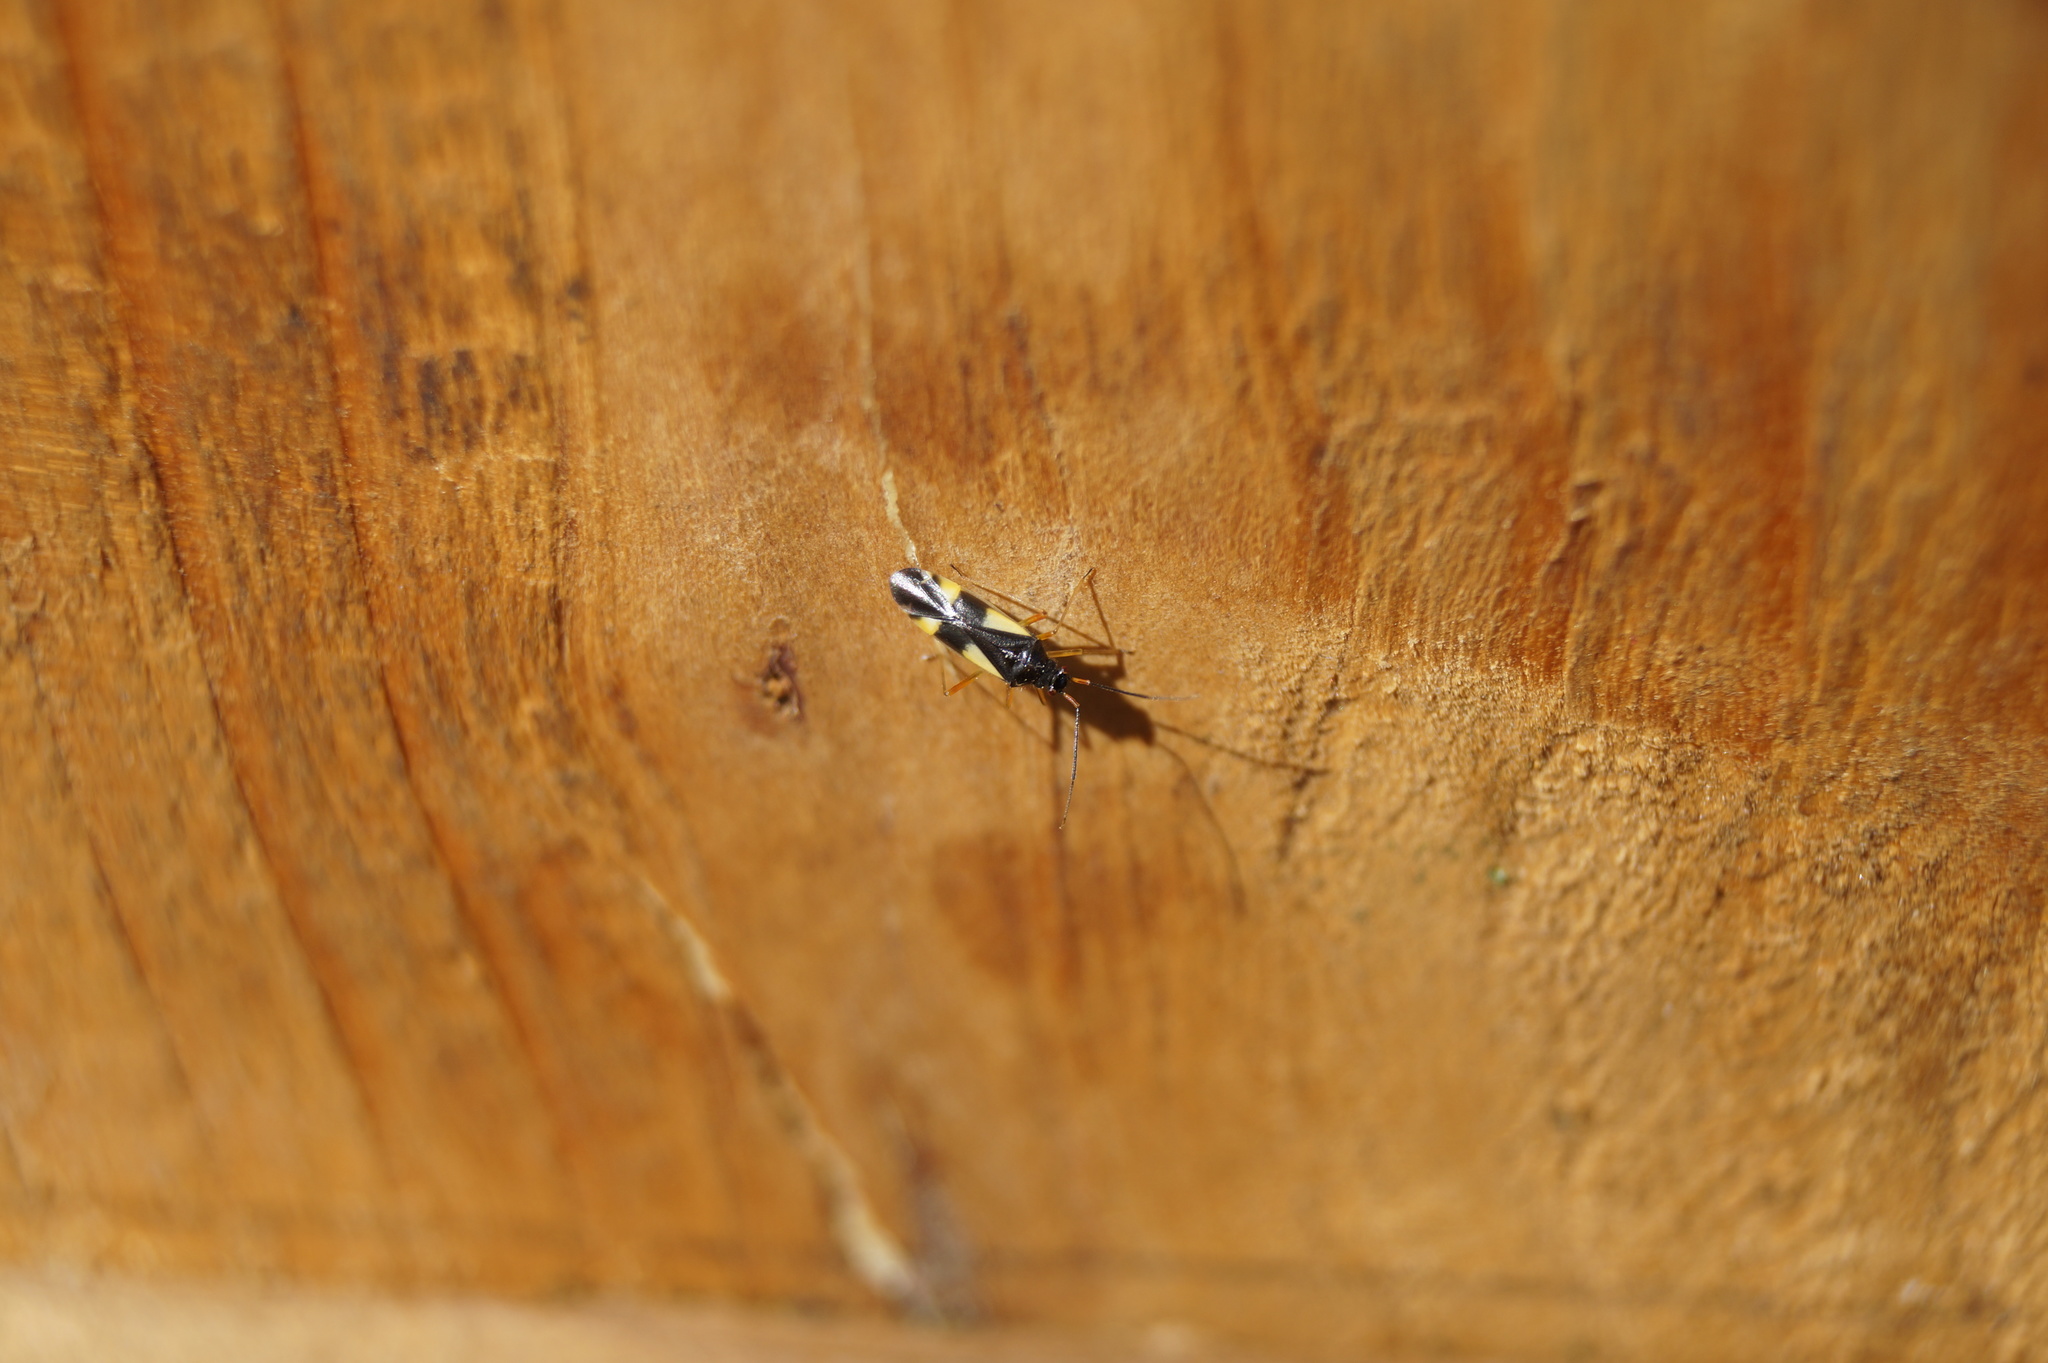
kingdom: Animalia
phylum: Arthropoda
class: Insecta
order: Hemiptera
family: Miridae
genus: Dryophilocoris
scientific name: Dryophilocoris flavoquadrimaculatus
